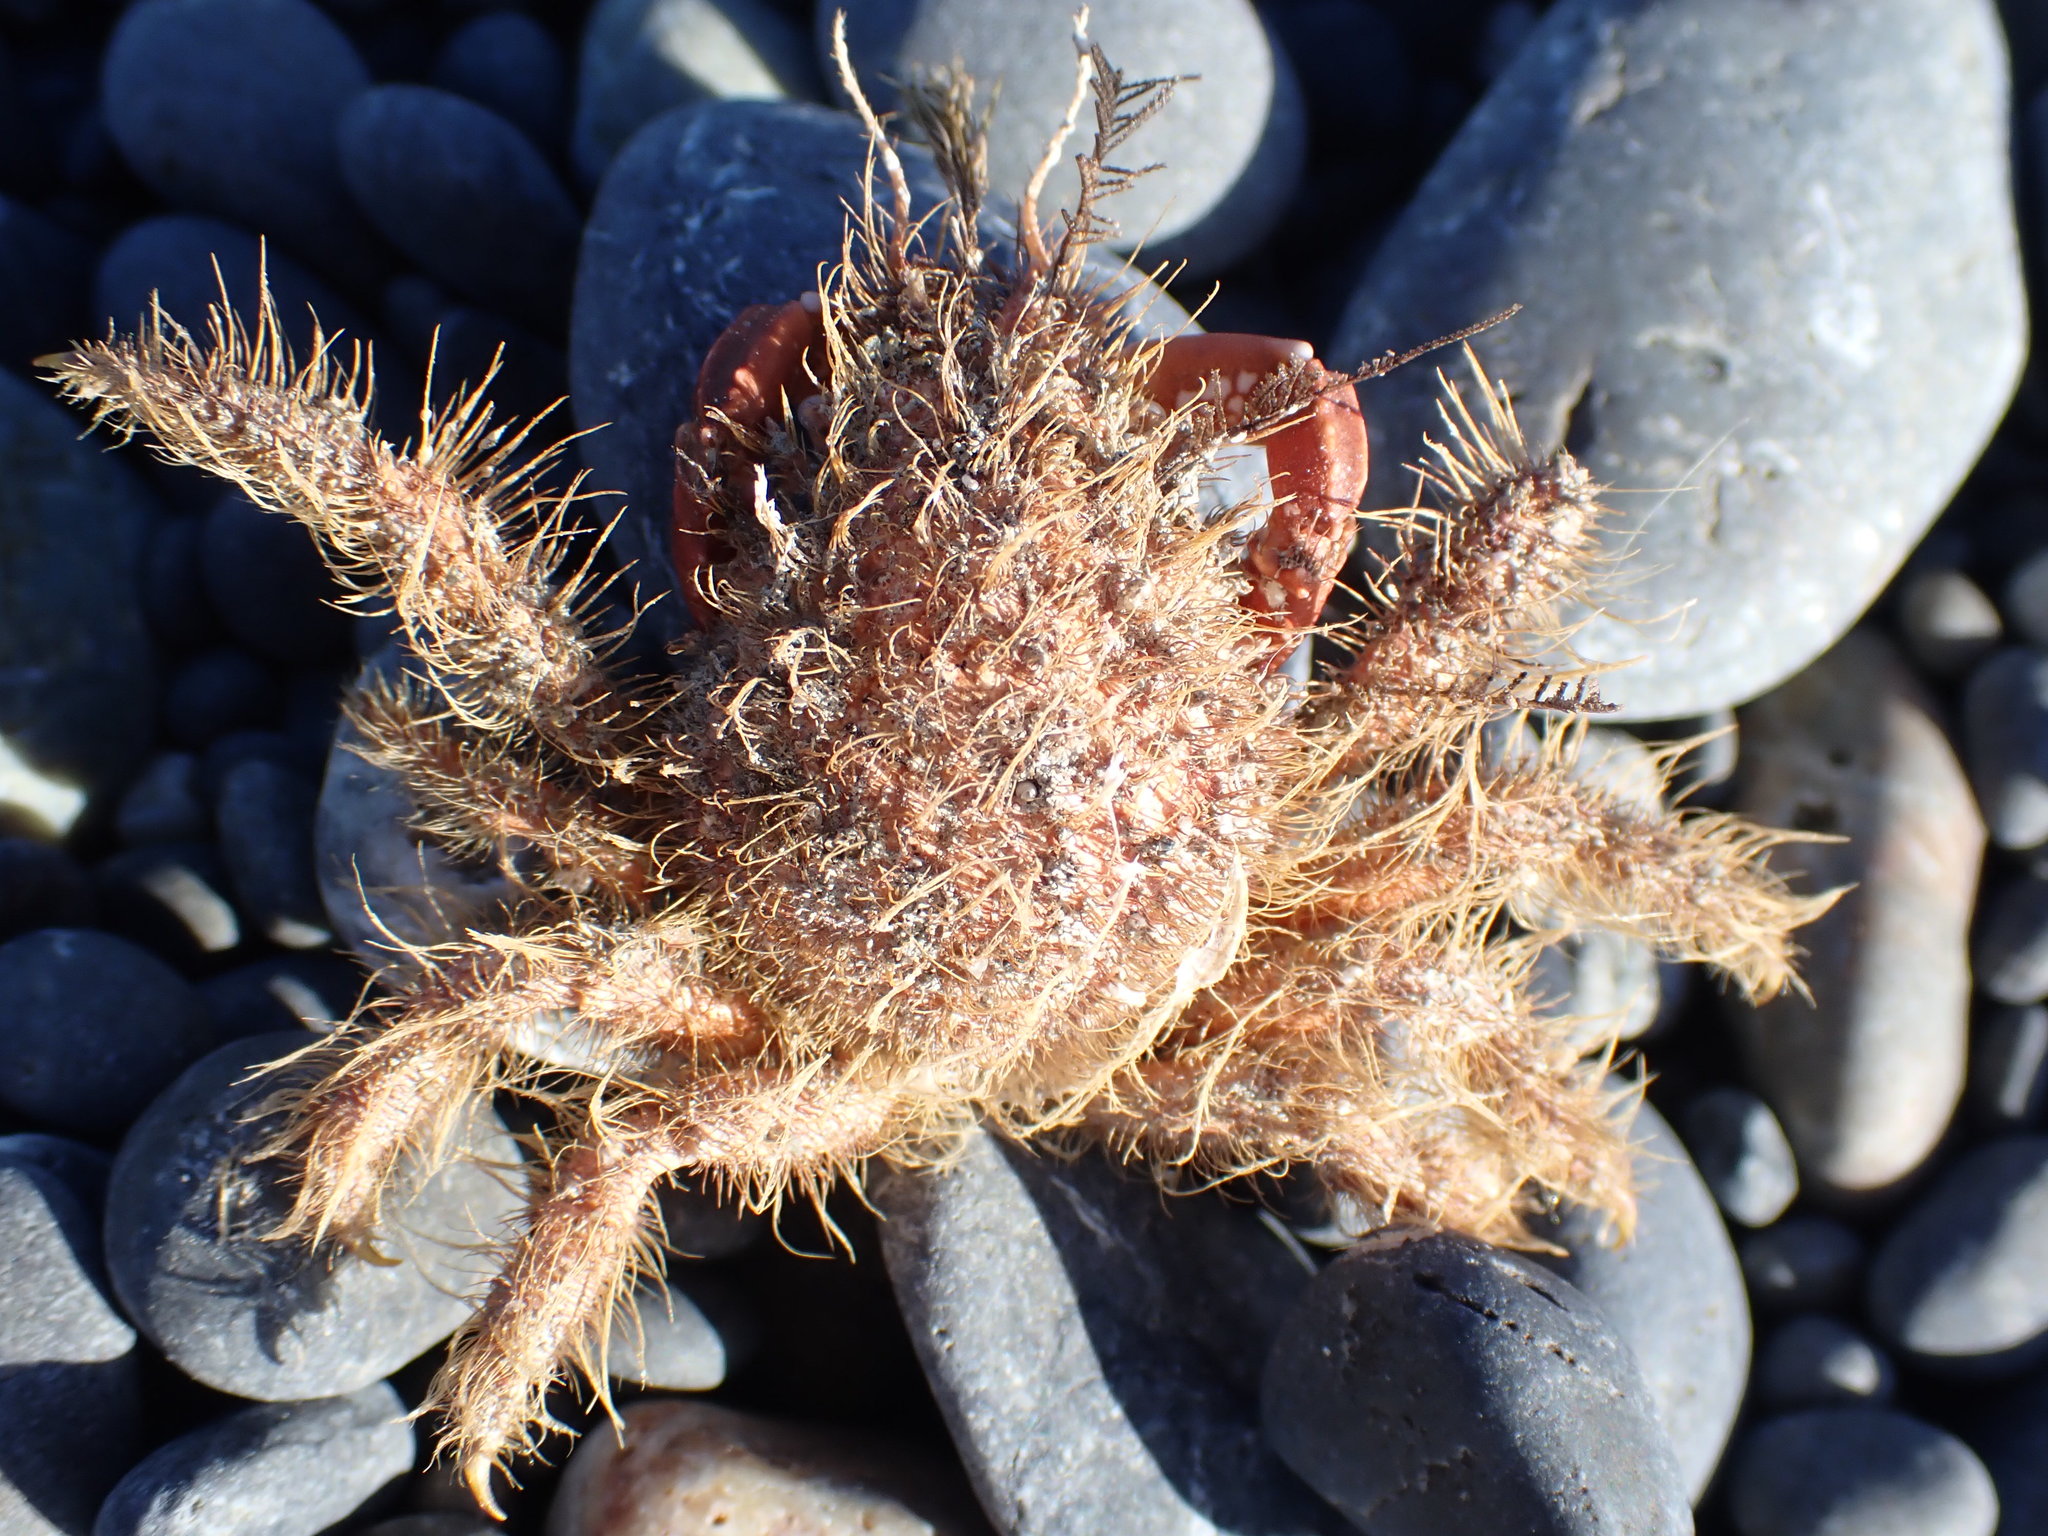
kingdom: Animalia
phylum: Arthropoda
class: Malacostraca
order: Decapoda
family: Majidae
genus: Notomithrax
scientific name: Notomithrax ursus
